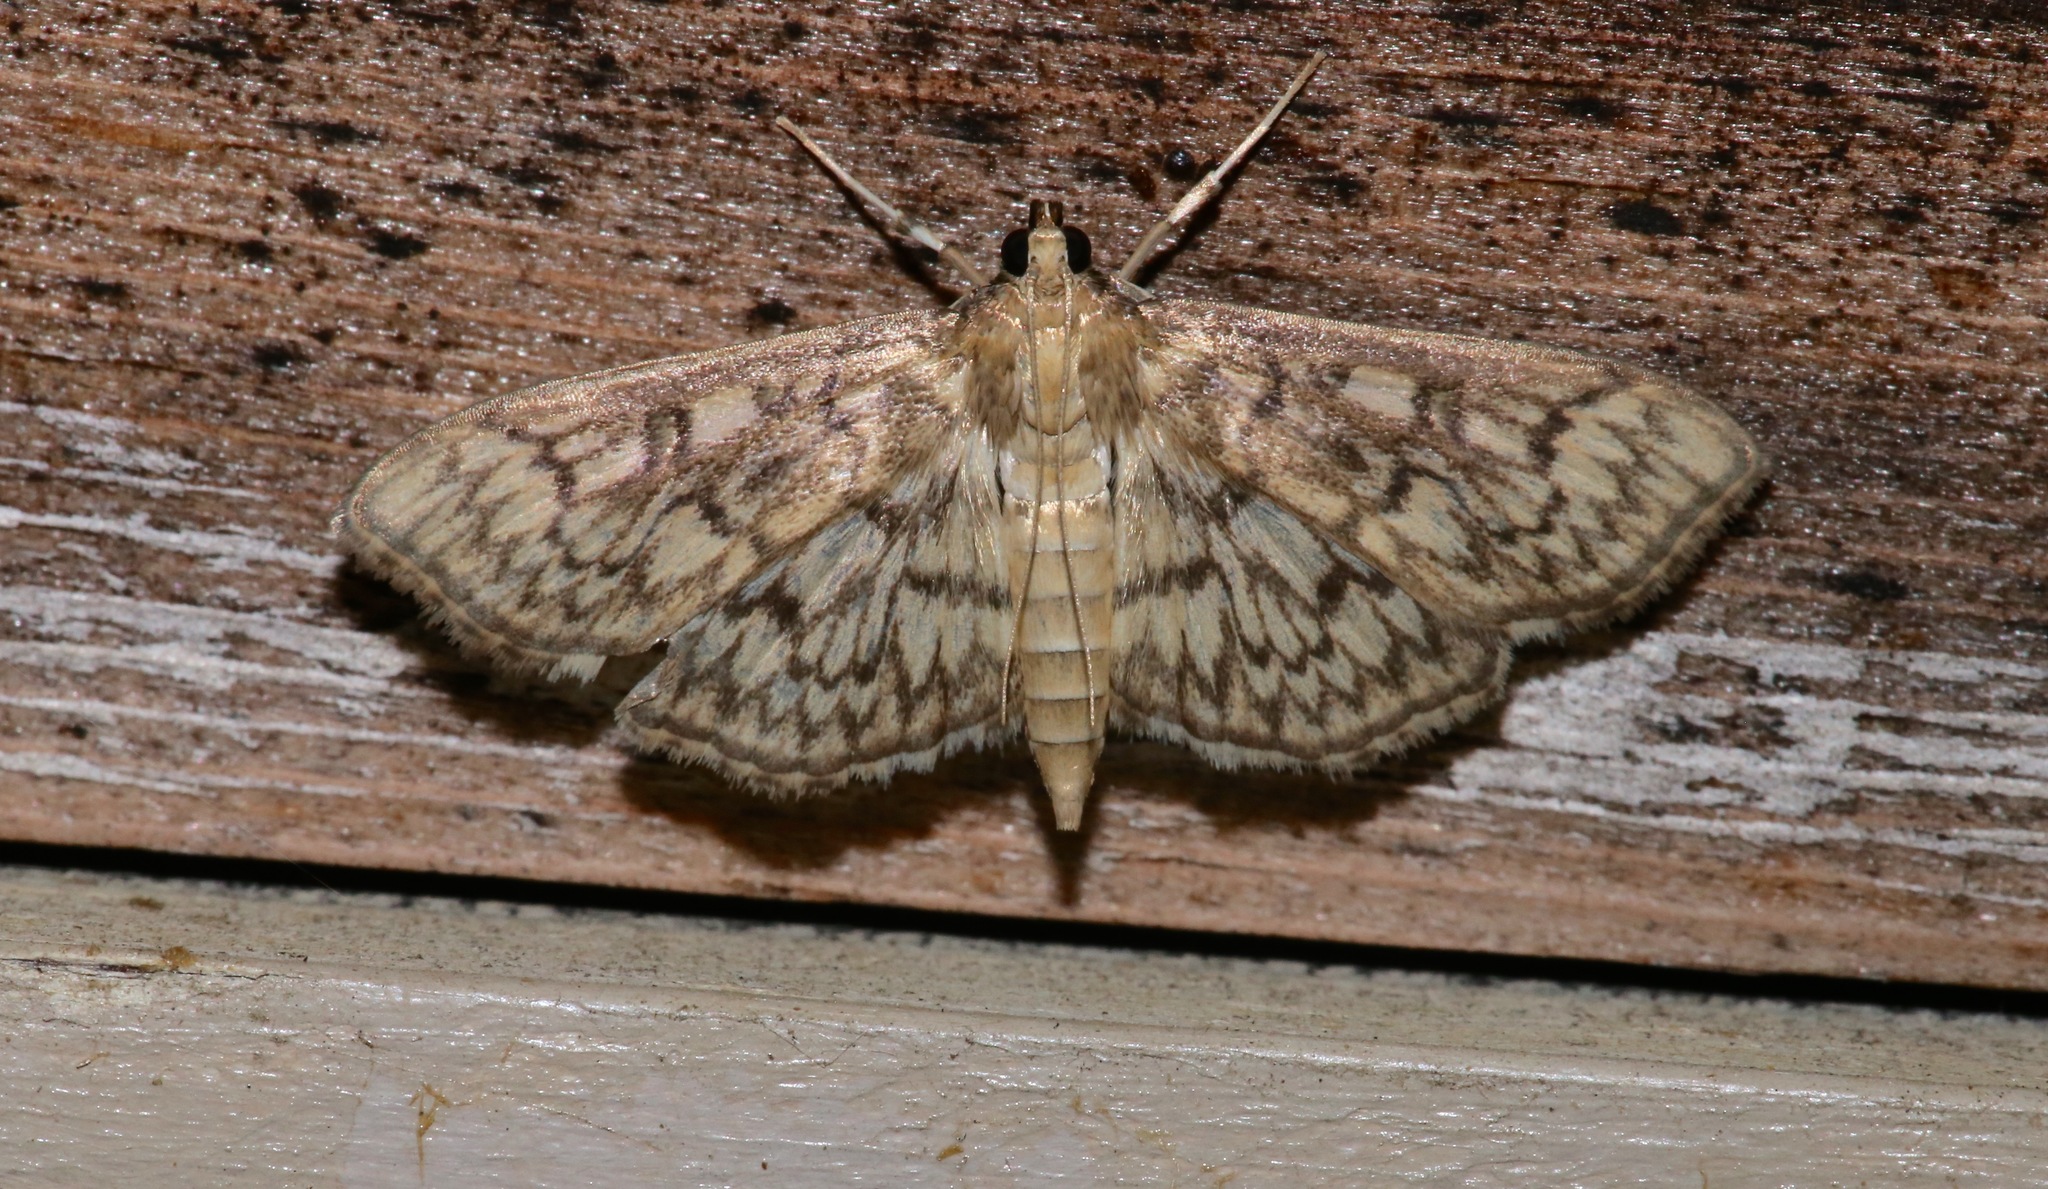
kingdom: Animalia
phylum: Arthropoda
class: Insecta
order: Lepidoptera
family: Crambidae
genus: Herpetogramma
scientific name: Herpetogramma pertextalis
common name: Bold-feathered grass moth
